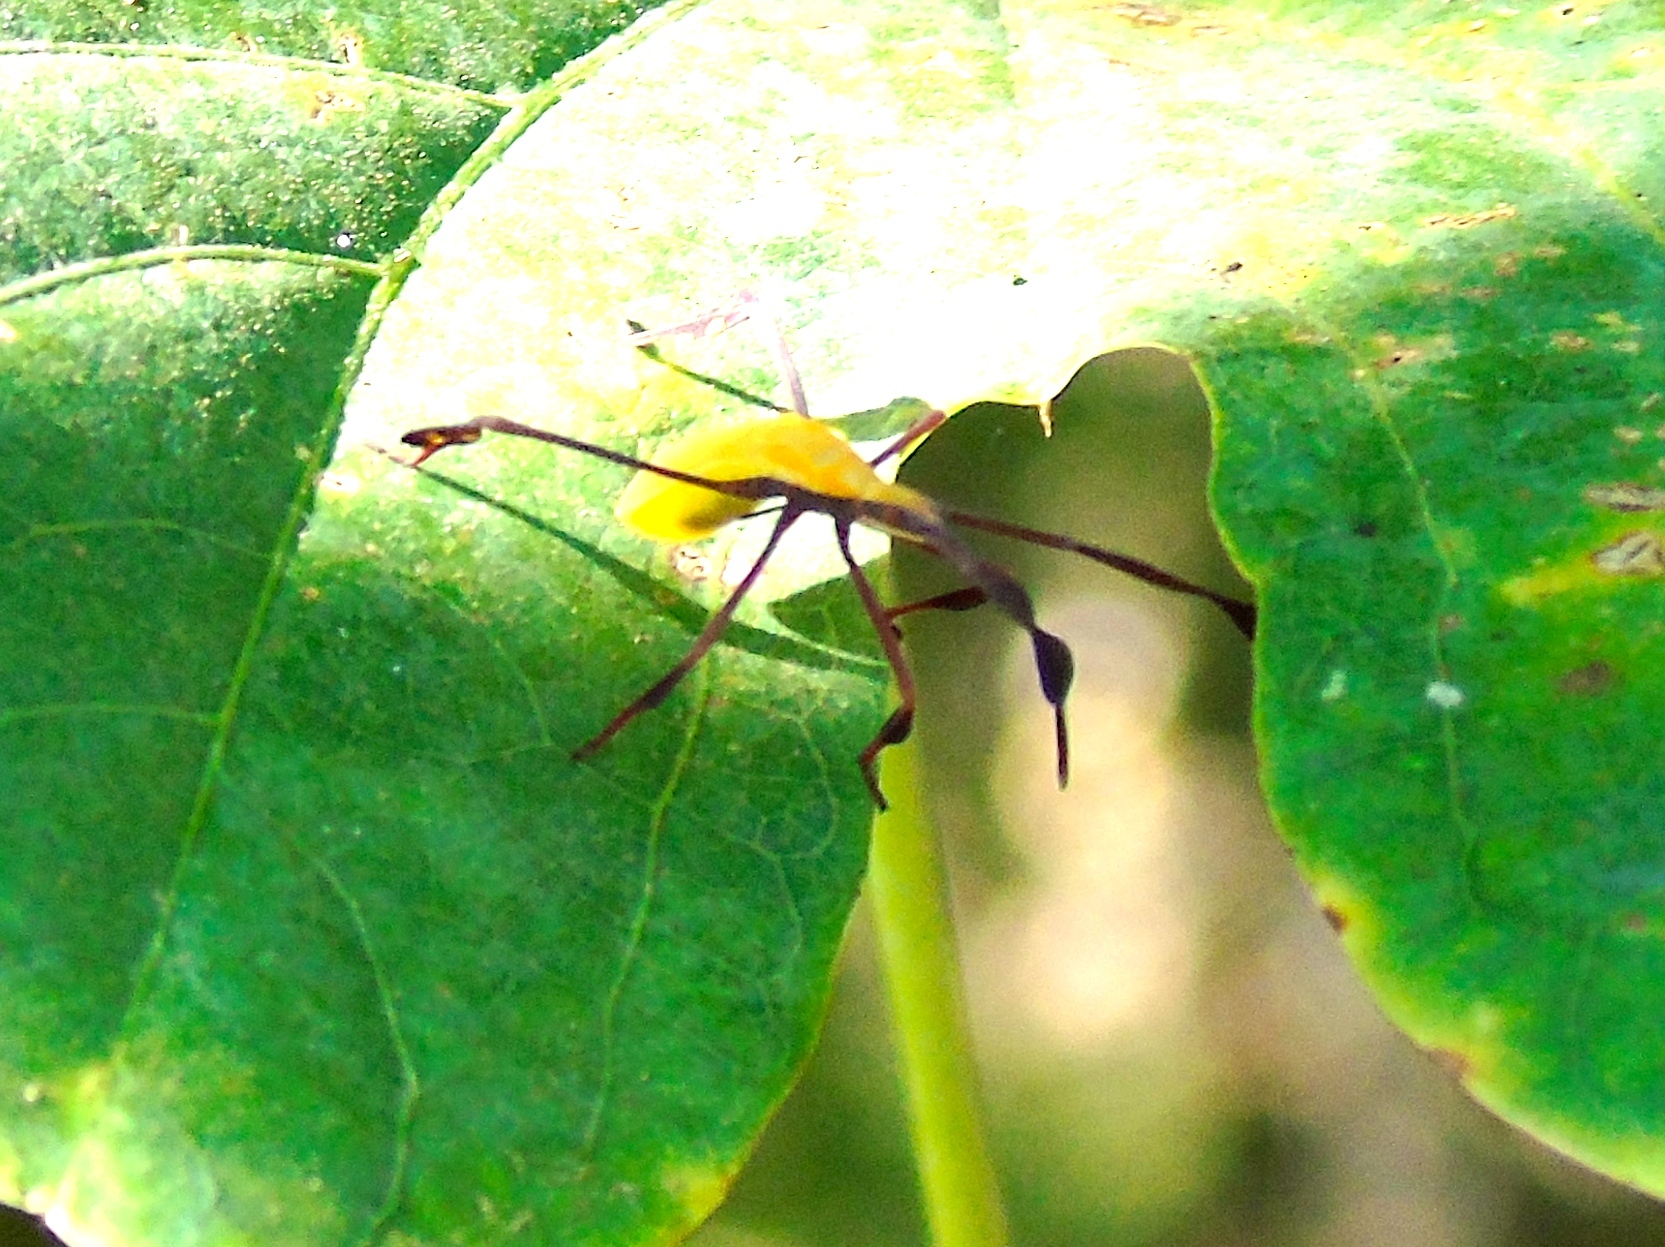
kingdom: Animalia
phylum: Arthropoda
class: Insecta
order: Hemiptera
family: Coreidae
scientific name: Coreidae
